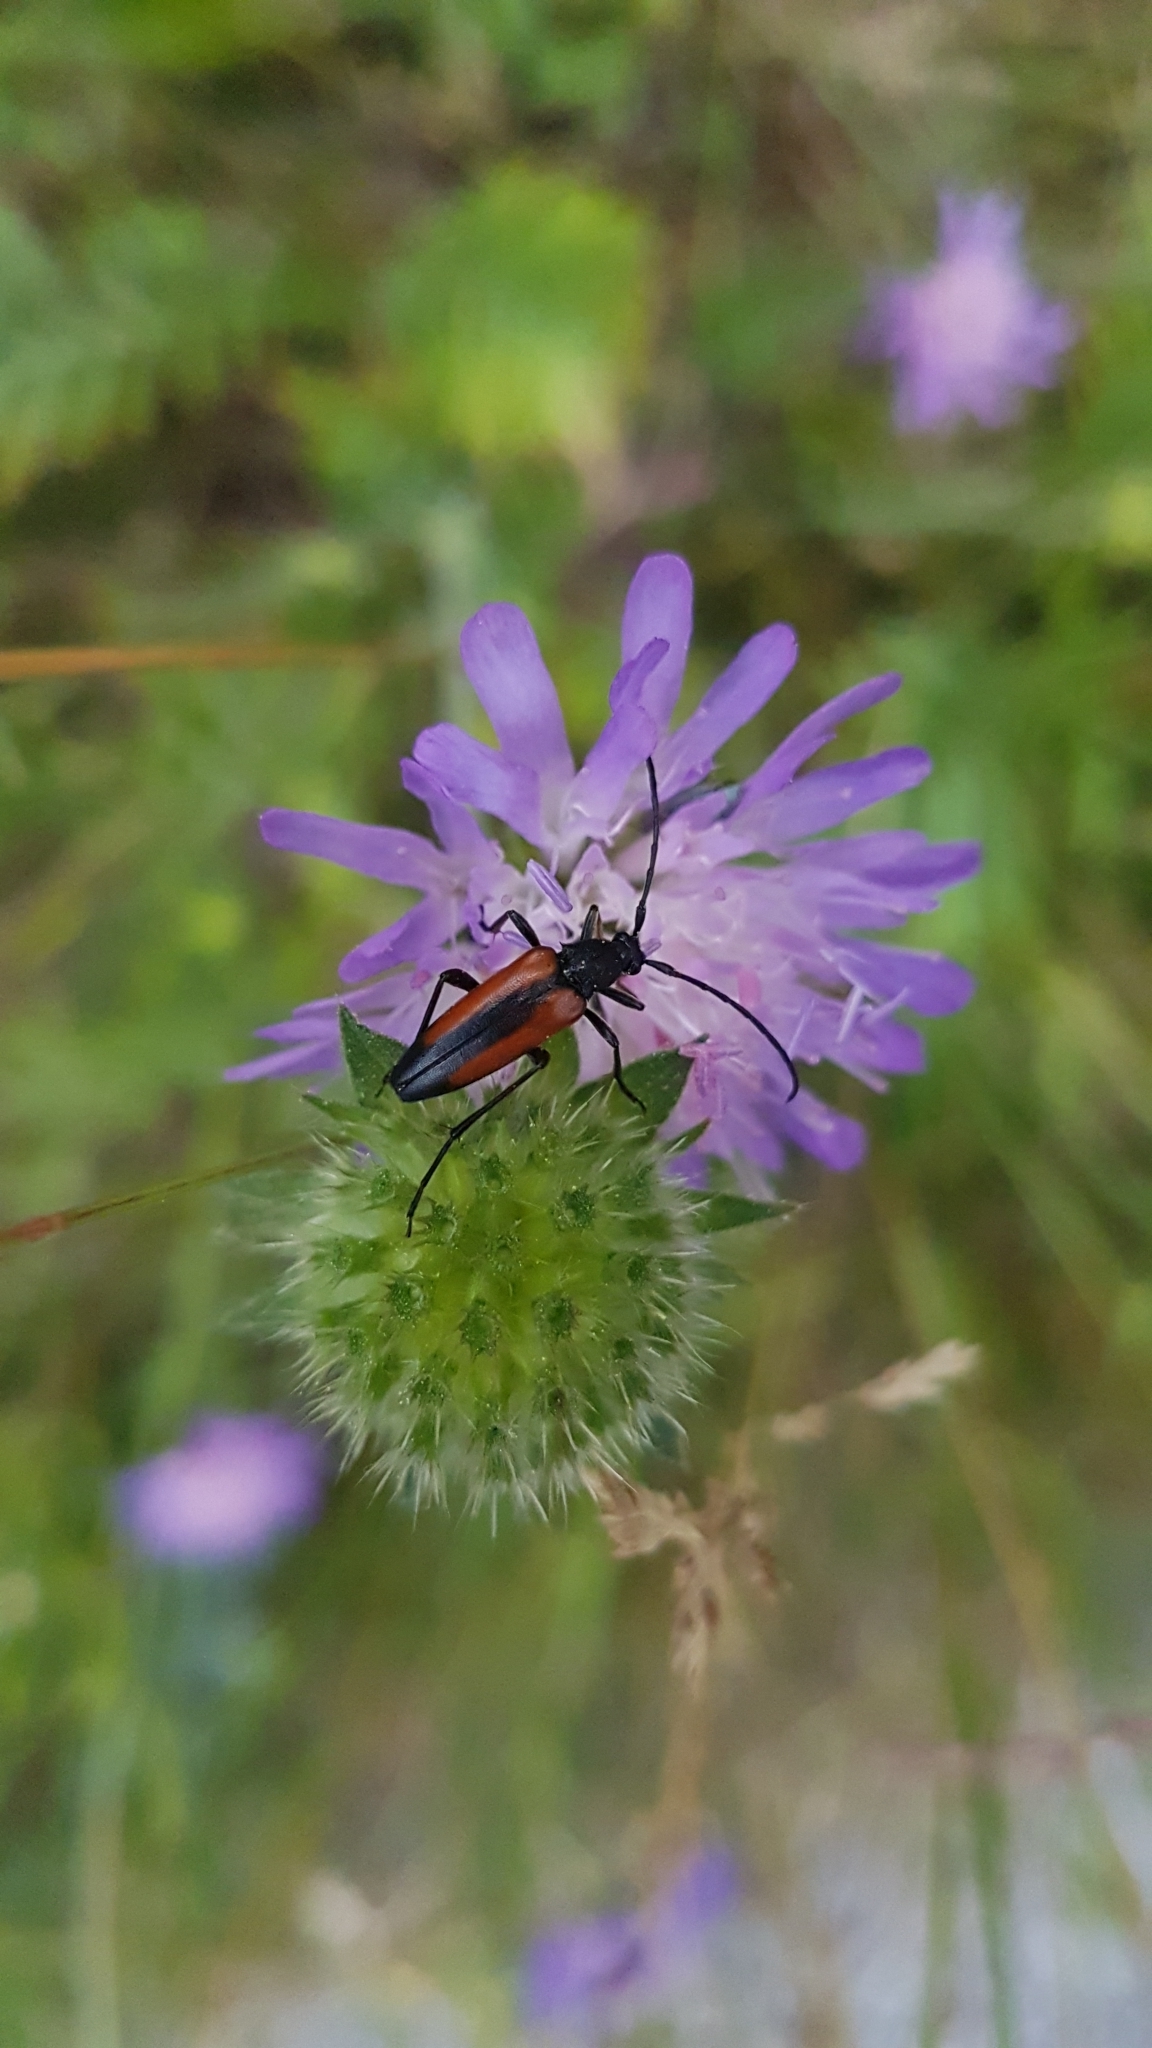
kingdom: Animalia
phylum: Arthropoda
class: Insecta
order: Coleoptera
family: Cerambycidae
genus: Stenurella
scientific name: Stenurella melanura
